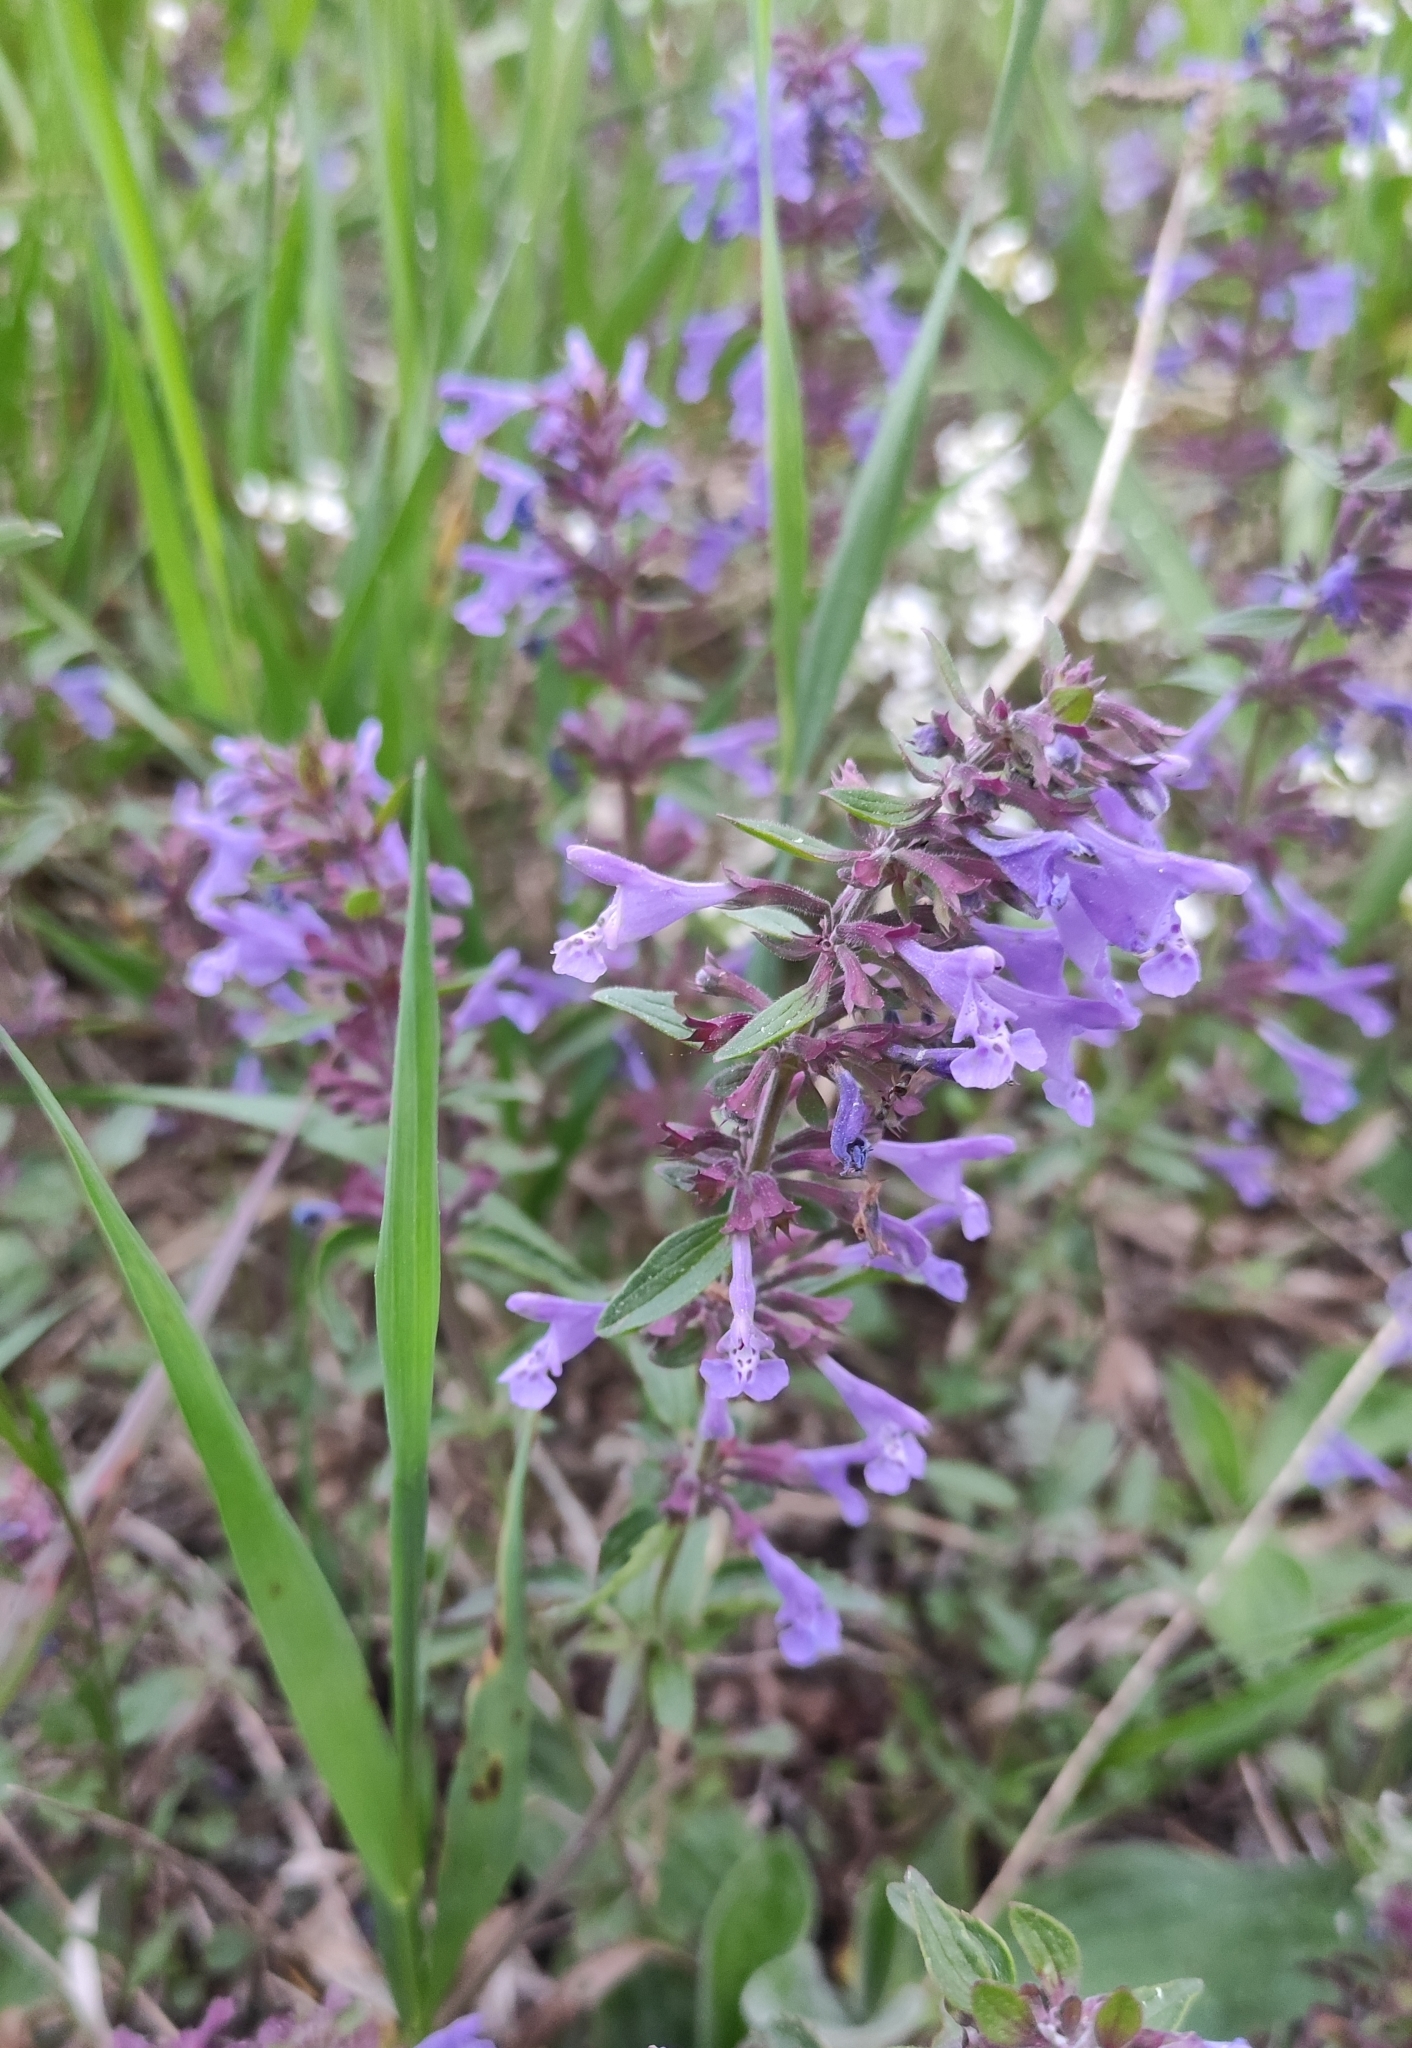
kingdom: Plantae
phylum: Tracheophyta
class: Magnoliopsida
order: Lamiales
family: Lamiaceae
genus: Dracocephalum
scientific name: Dracocephalum nutans
